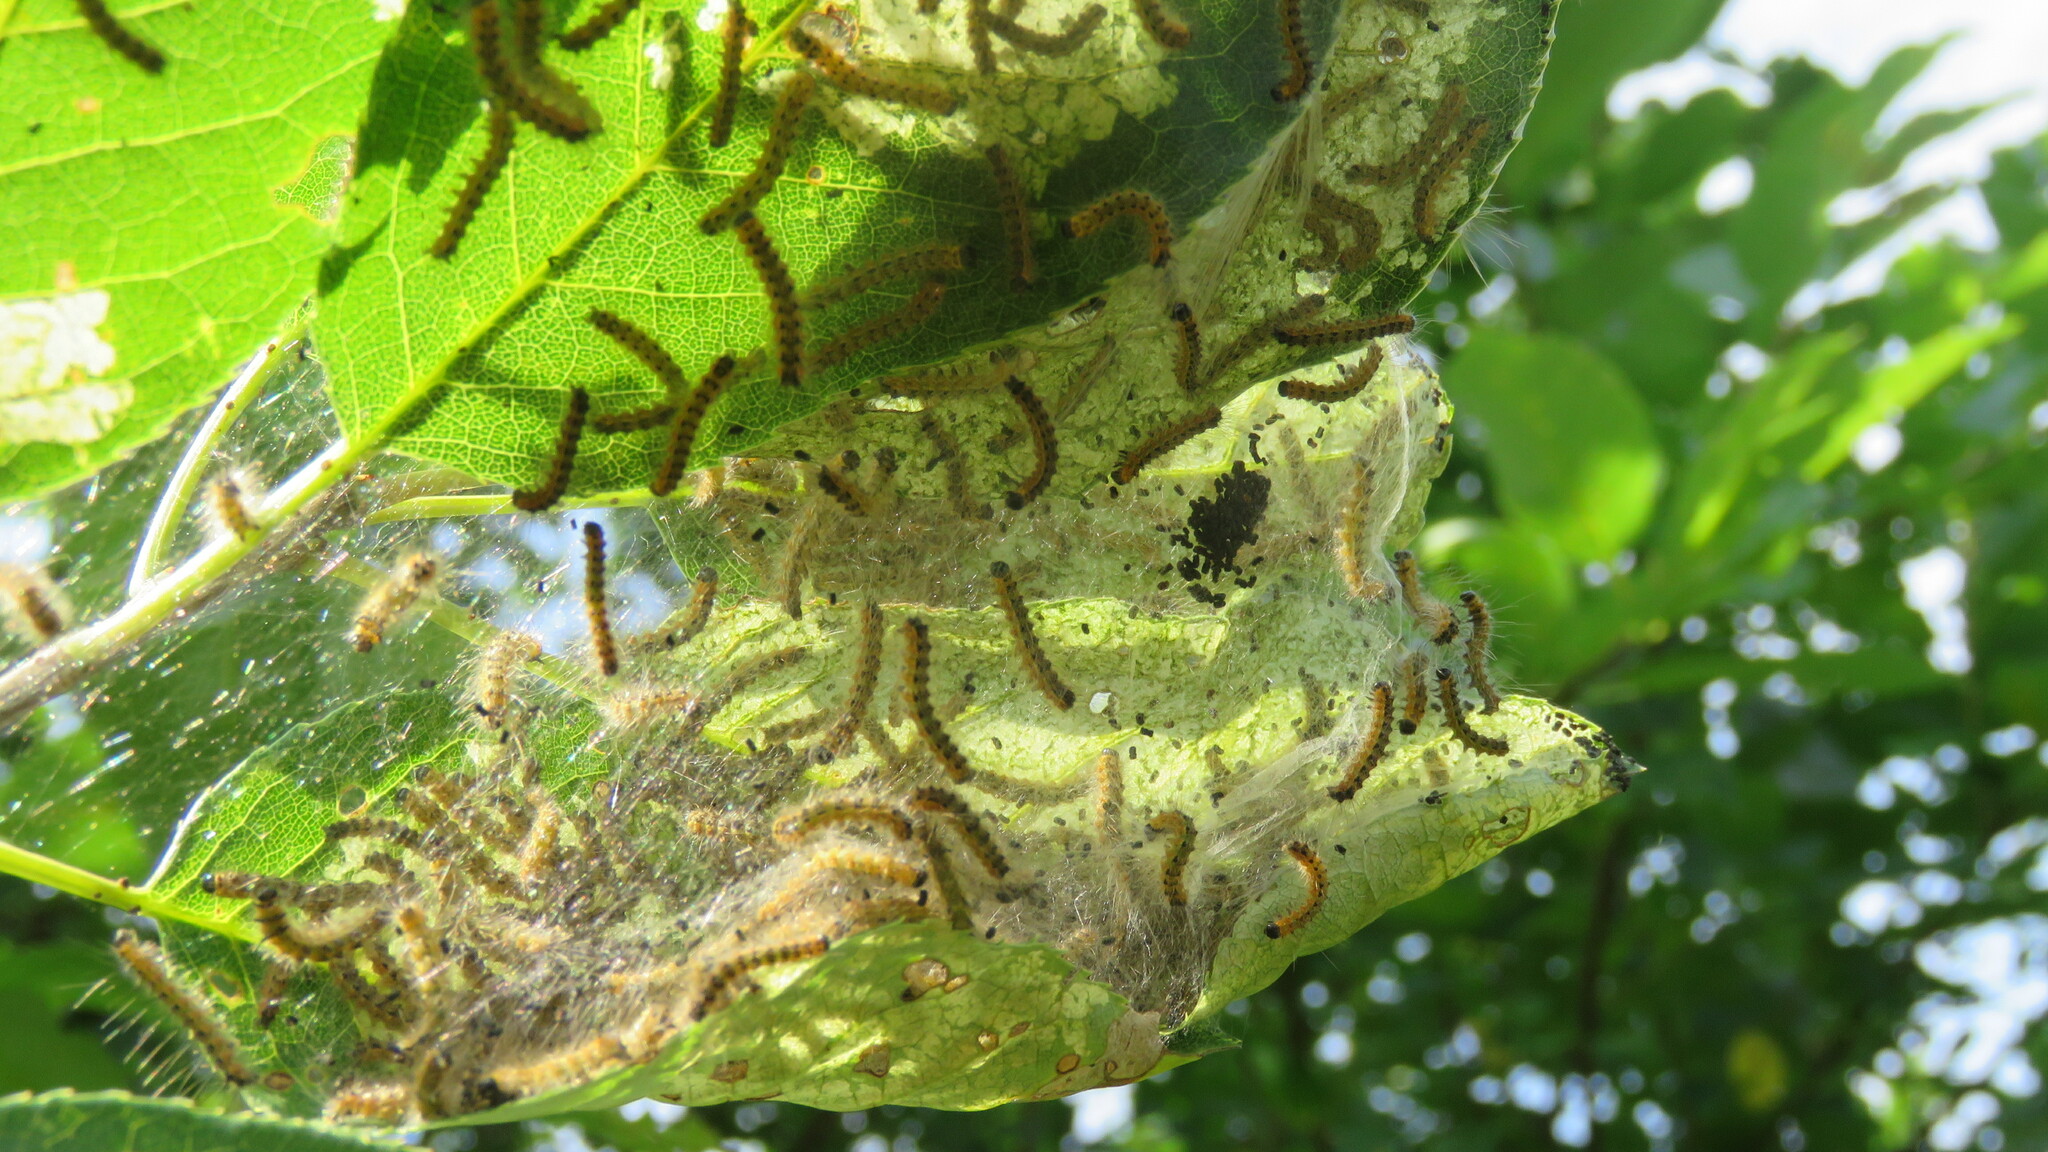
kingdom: Animalia
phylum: Arthropoda
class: Insecta
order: Lepidoptera
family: Erebidae
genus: Hyphantria
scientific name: Hyphantria cunea
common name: American white moth
